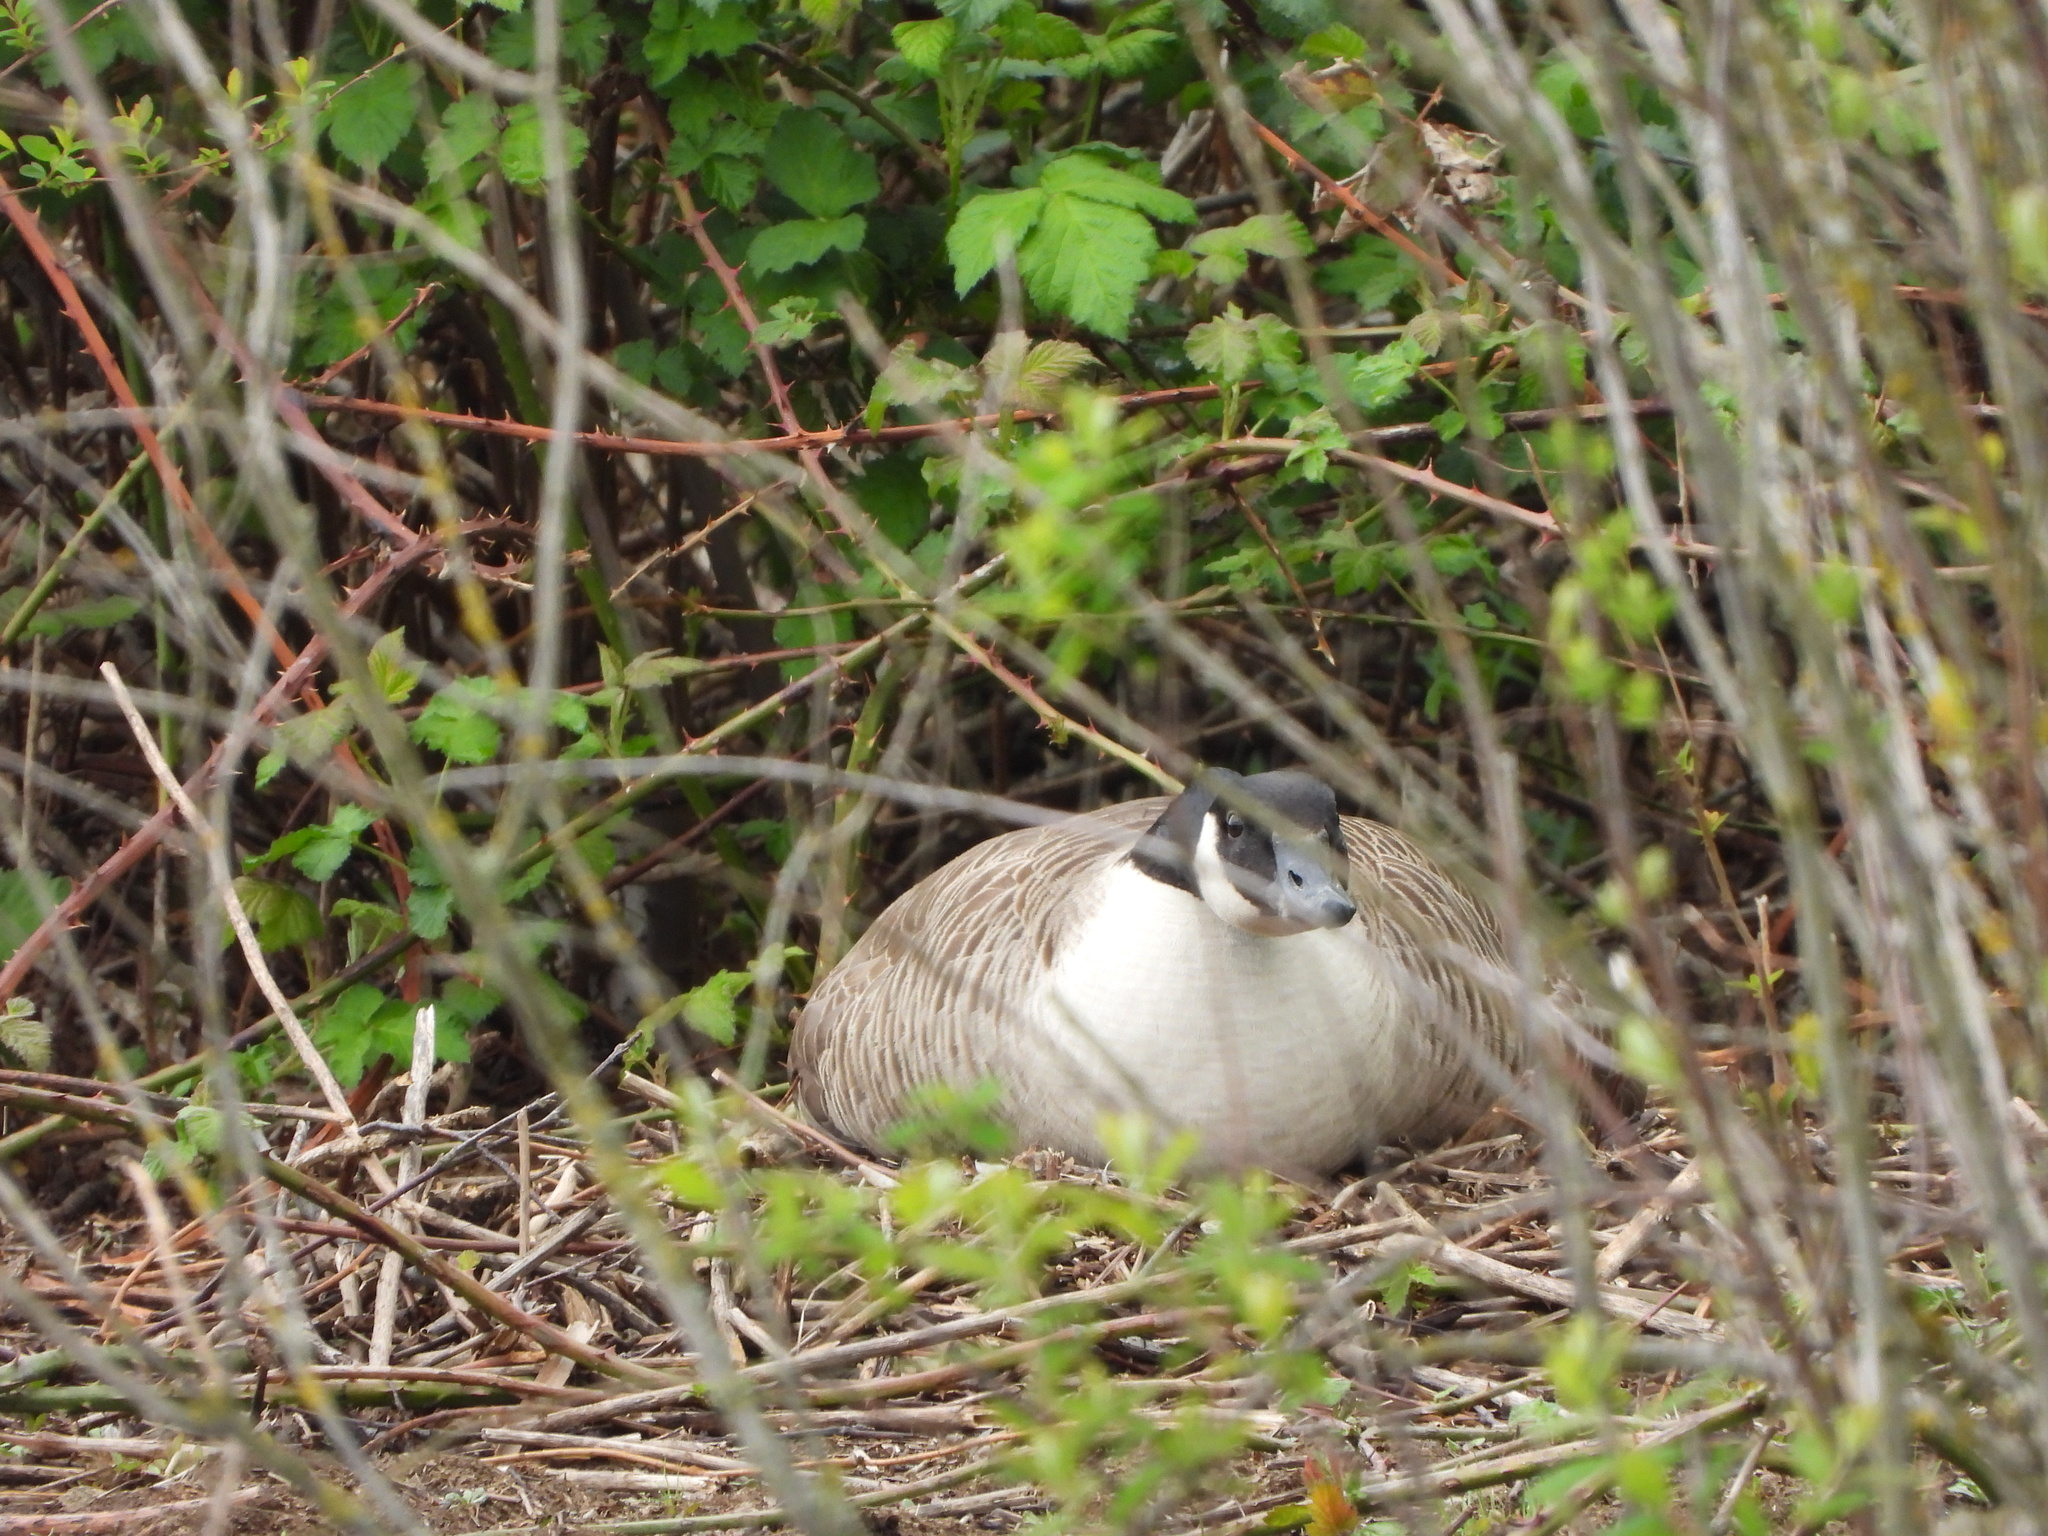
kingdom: Animalia
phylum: Chordata
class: Aves
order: Anseriformes
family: Anatidae
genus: Branta
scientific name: Branta canadensis
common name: Canada goose
